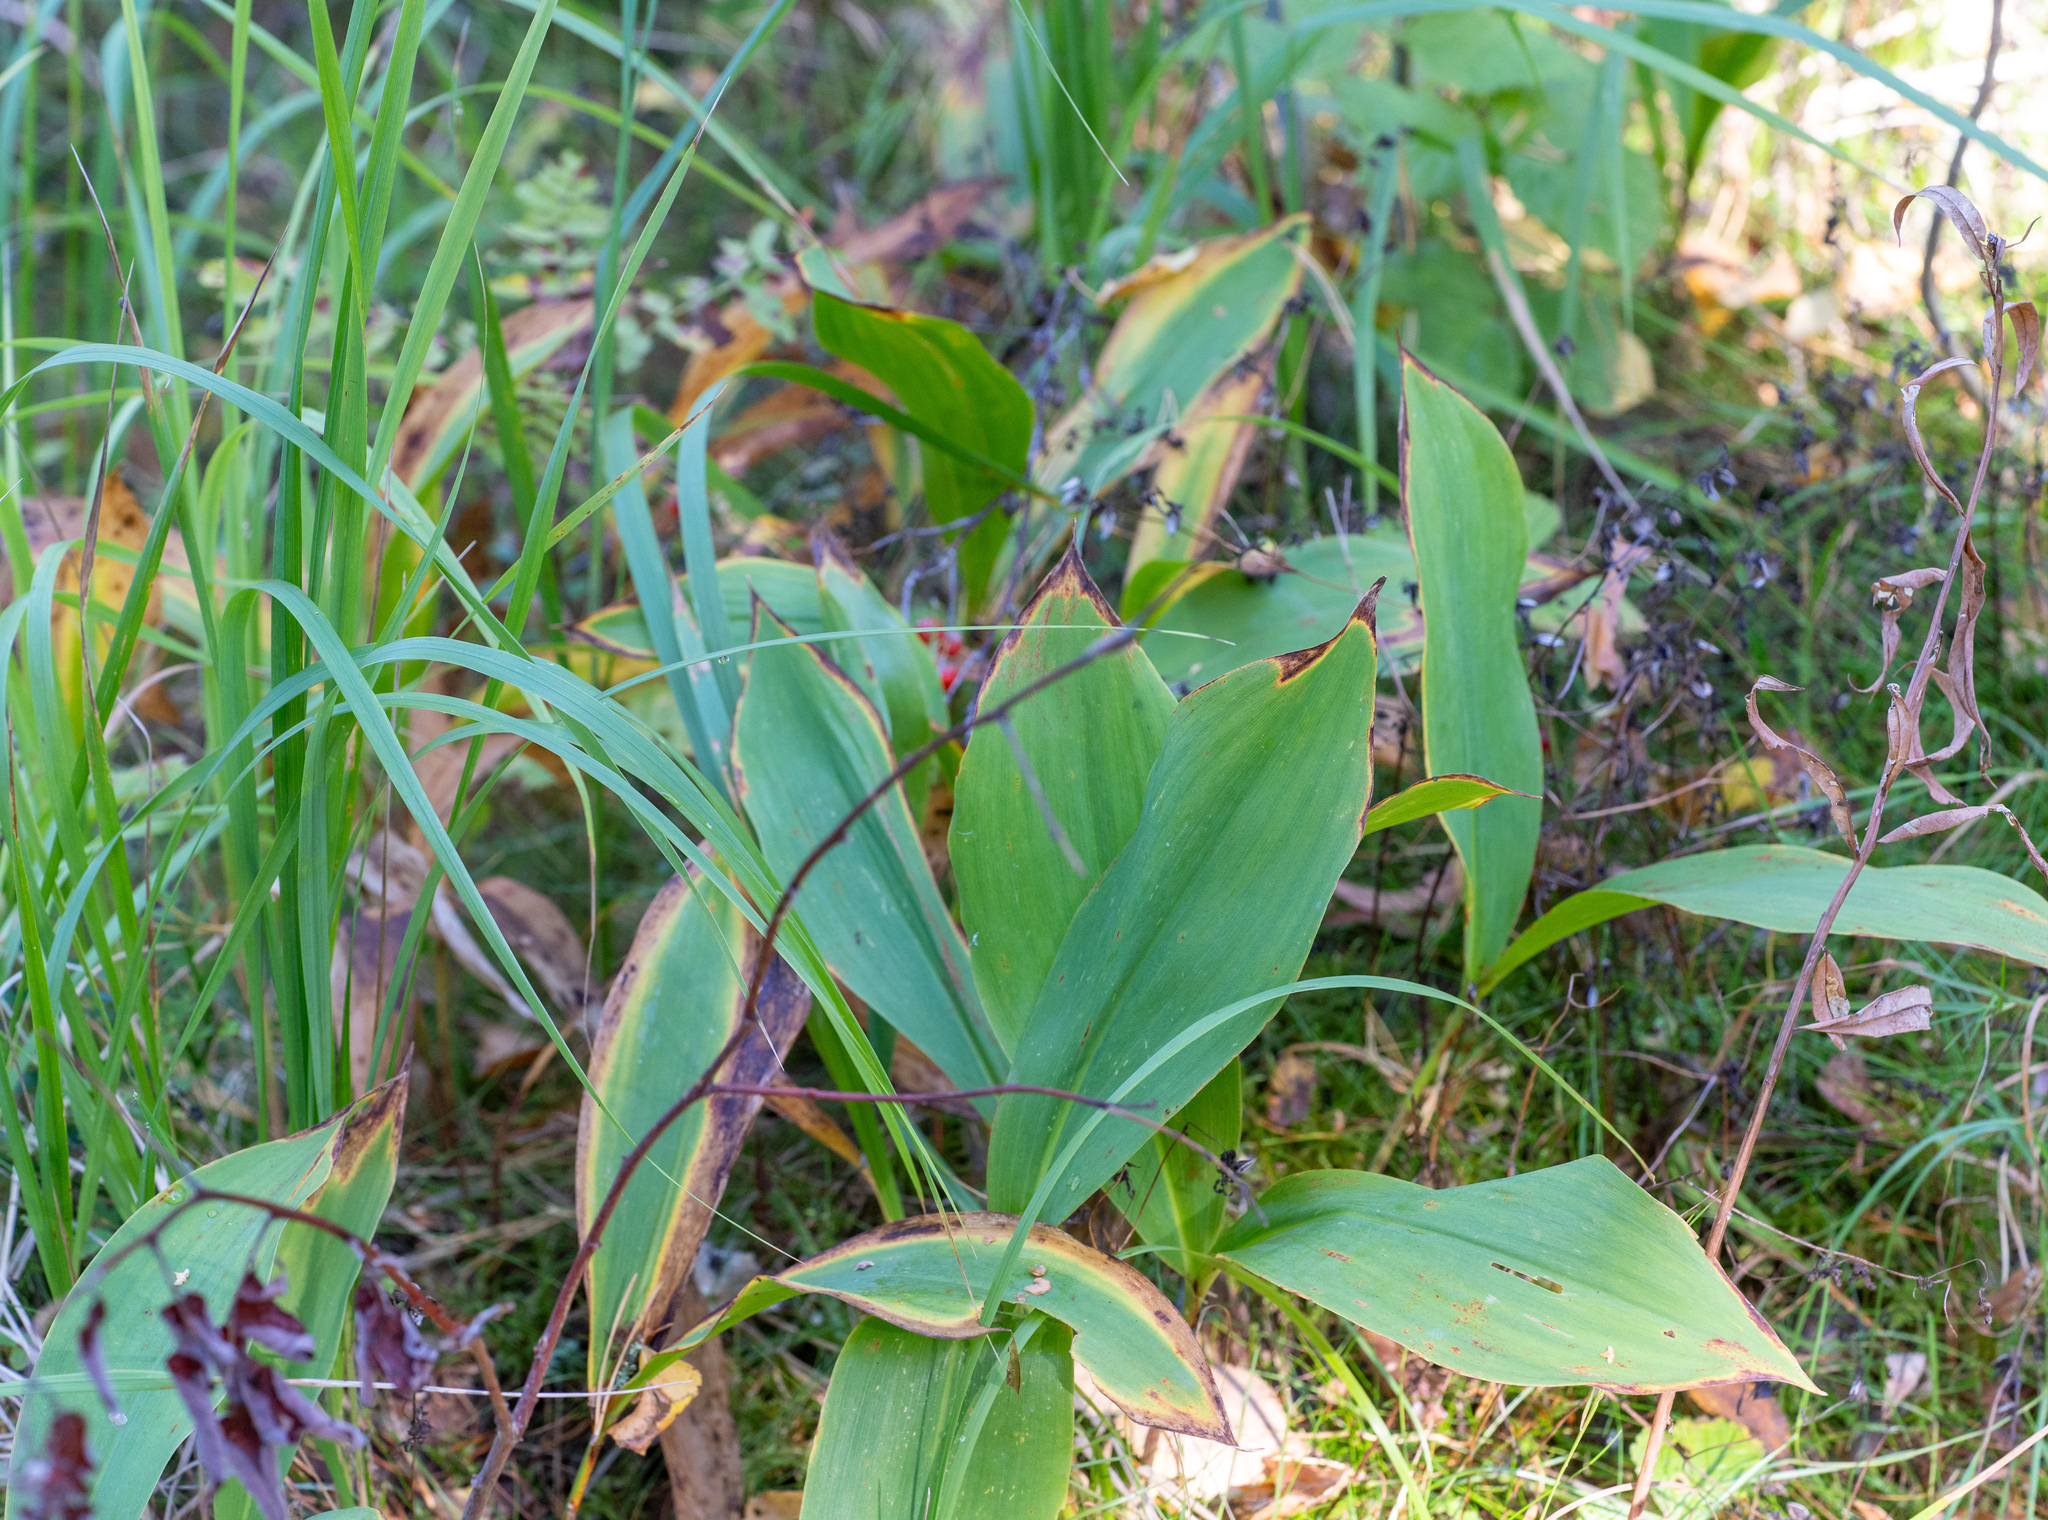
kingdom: Plantae
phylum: Tracheophyta
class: Liliopsida
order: Asparagales
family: Asparagaceae
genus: Convallaria
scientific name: Convallaria majalis
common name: Lily-of-the-valley
